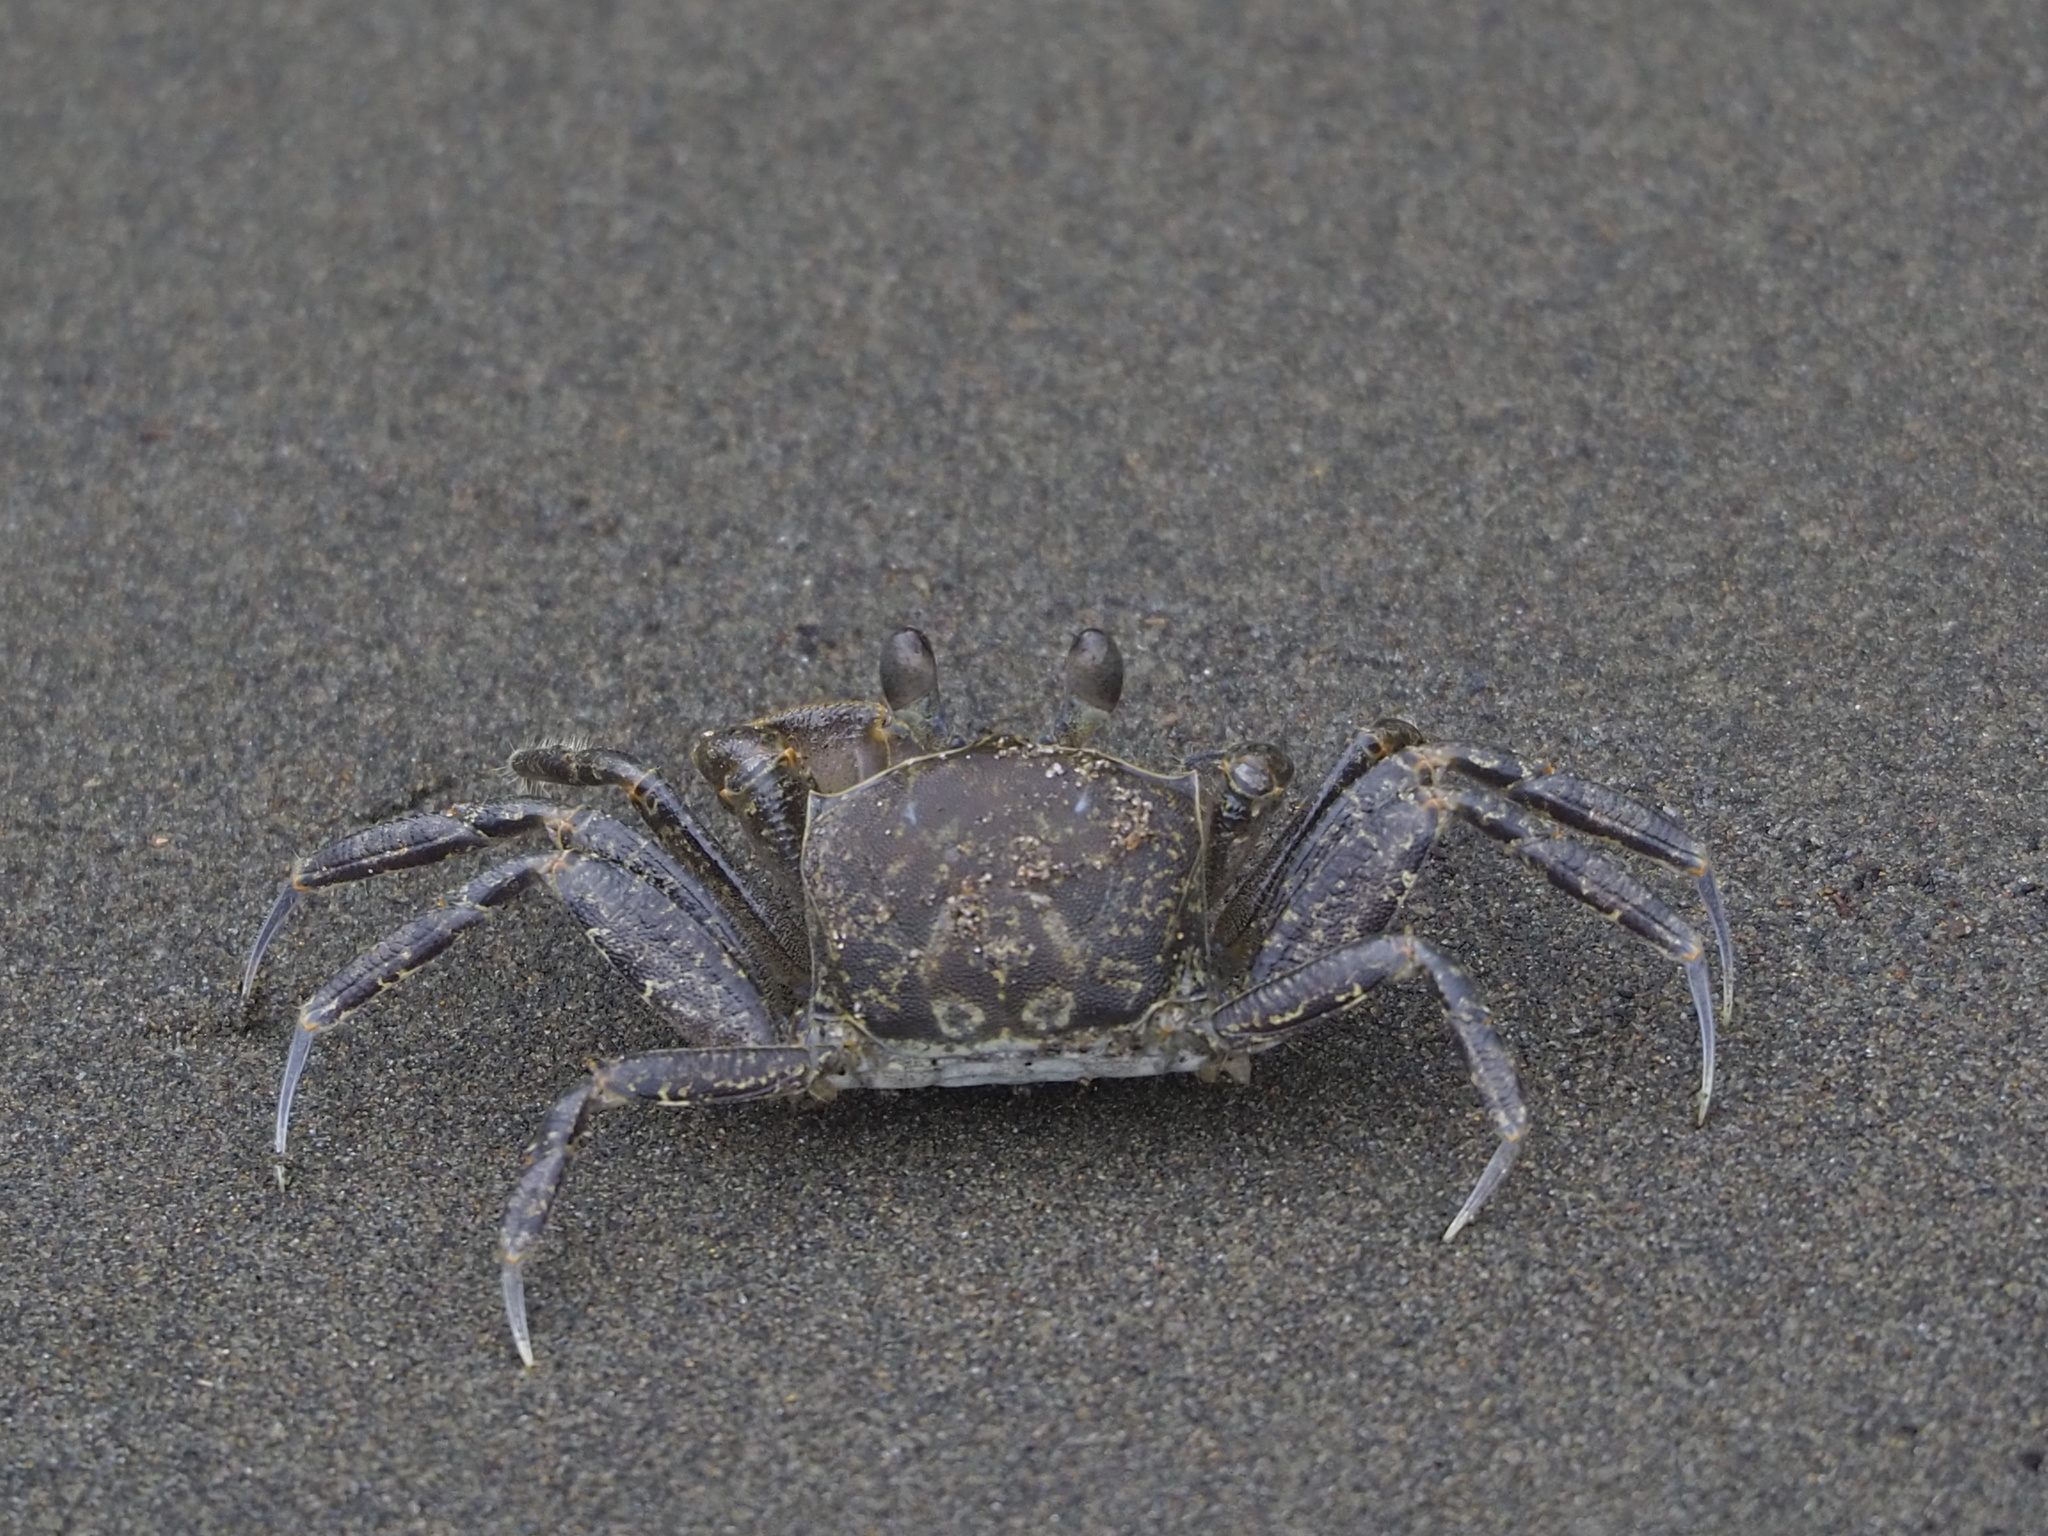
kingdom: Animalia
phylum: Arthropoda
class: Malacostraca
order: Decapoda
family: Ocypodidae
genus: Ocypode
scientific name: Ocypode ceratophthalmus
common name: Indo-pacific ghost crab
